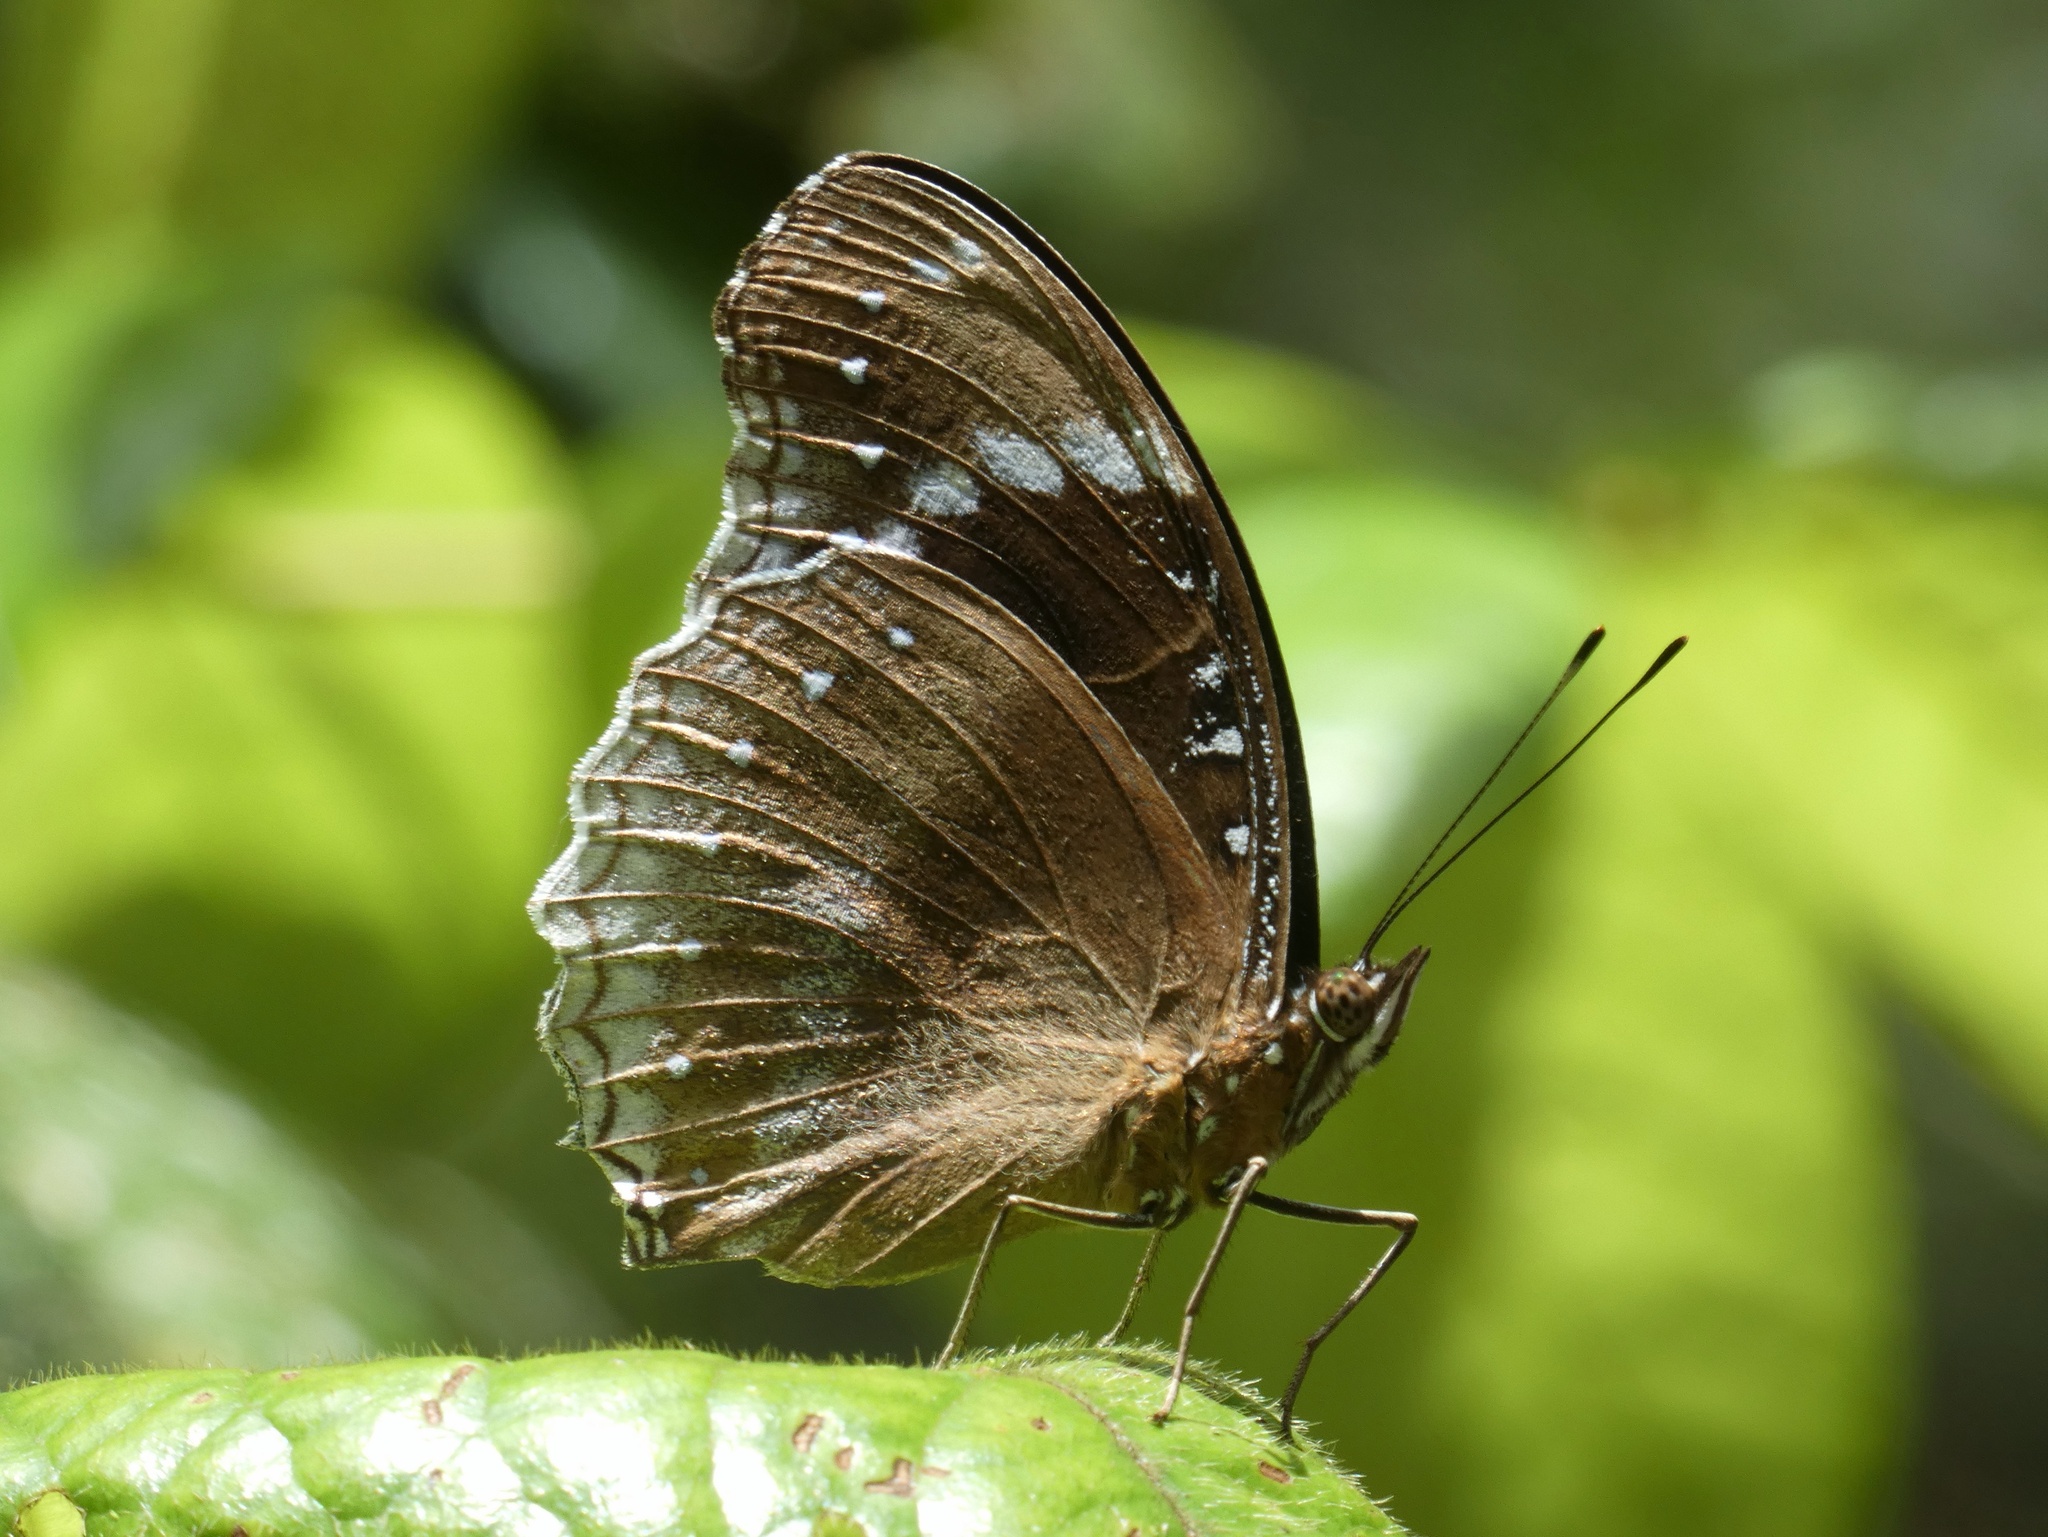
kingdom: Animalia
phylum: Arthropoda
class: Insecta
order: Lepidoptera
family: Nymphalidae
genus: Hypolimnas
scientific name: Hypolimnas alimena
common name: Blue-banded eggfly
